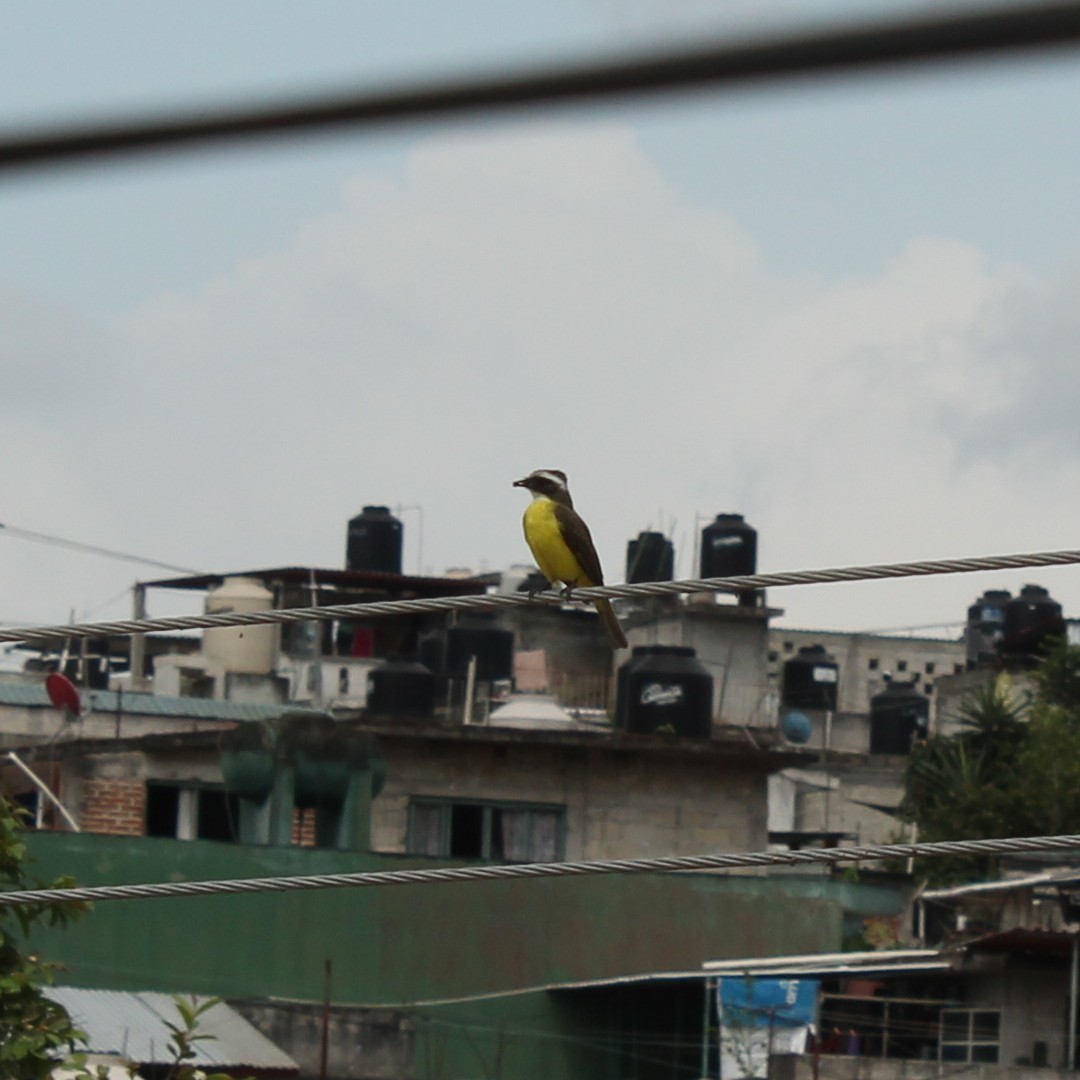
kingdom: Animalia
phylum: Chordata
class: Aves
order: Passeriformes
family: Tyrannidae
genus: Myiozetetes
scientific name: Myiozetetes similis
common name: Social flycatcher
